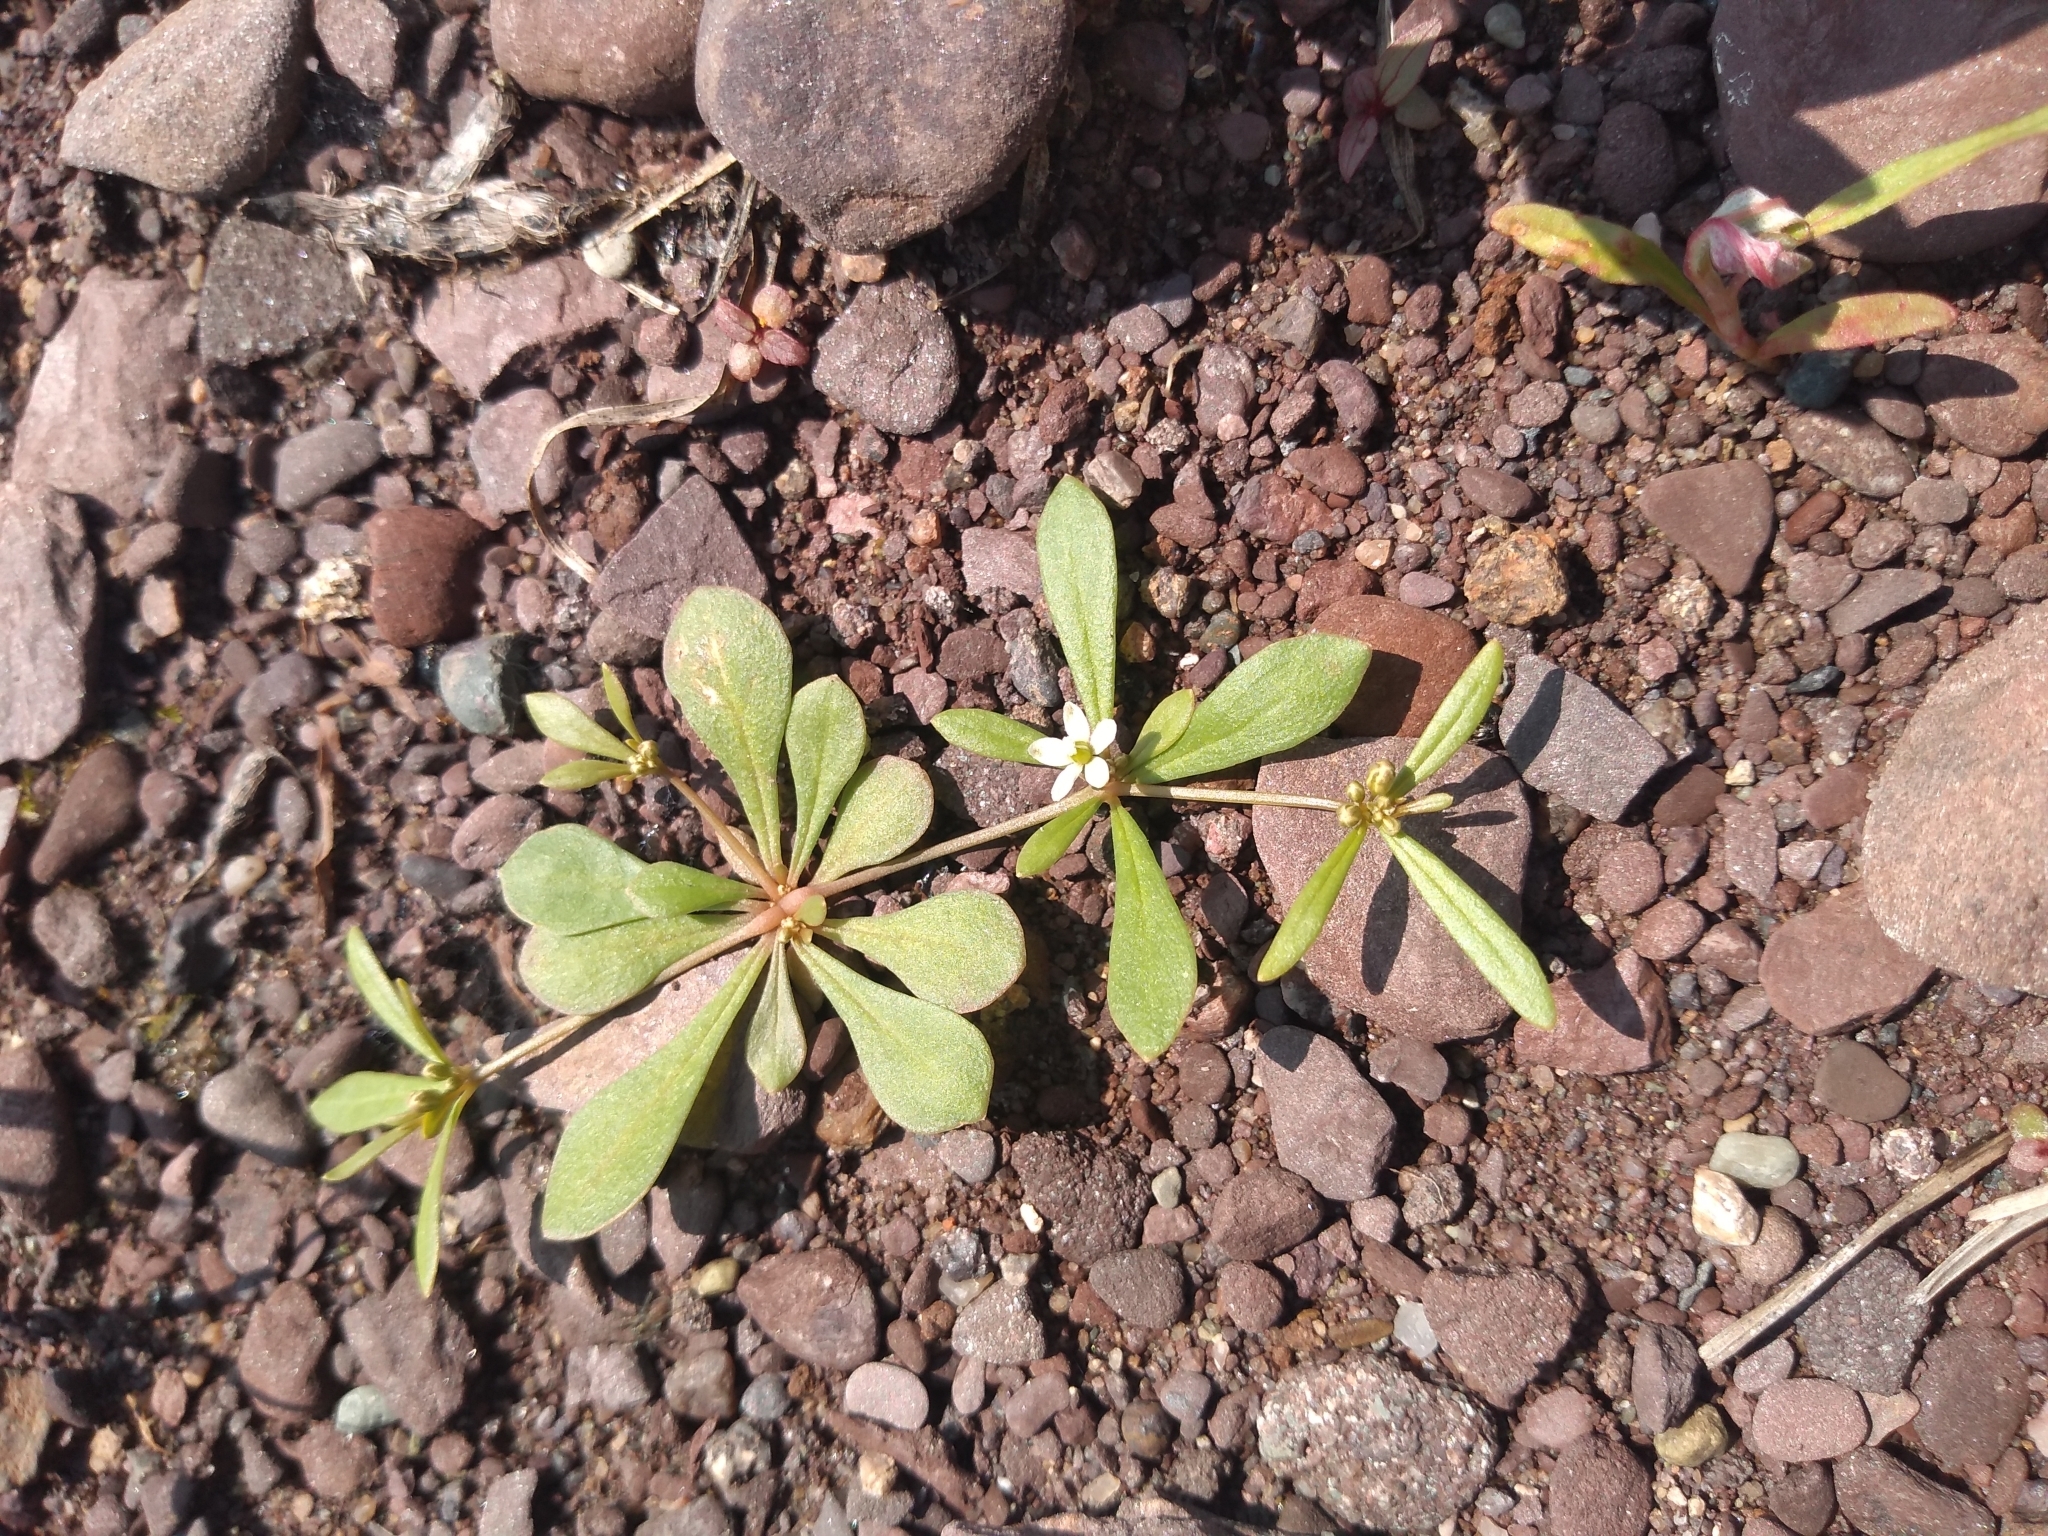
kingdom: Plantae
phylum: Tracheophyta
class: Magnoliopsida
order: Caryophyllales
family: Molluginaceae
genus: Mollugo
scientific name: Mollugo verticillata
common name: Green carpetweed
